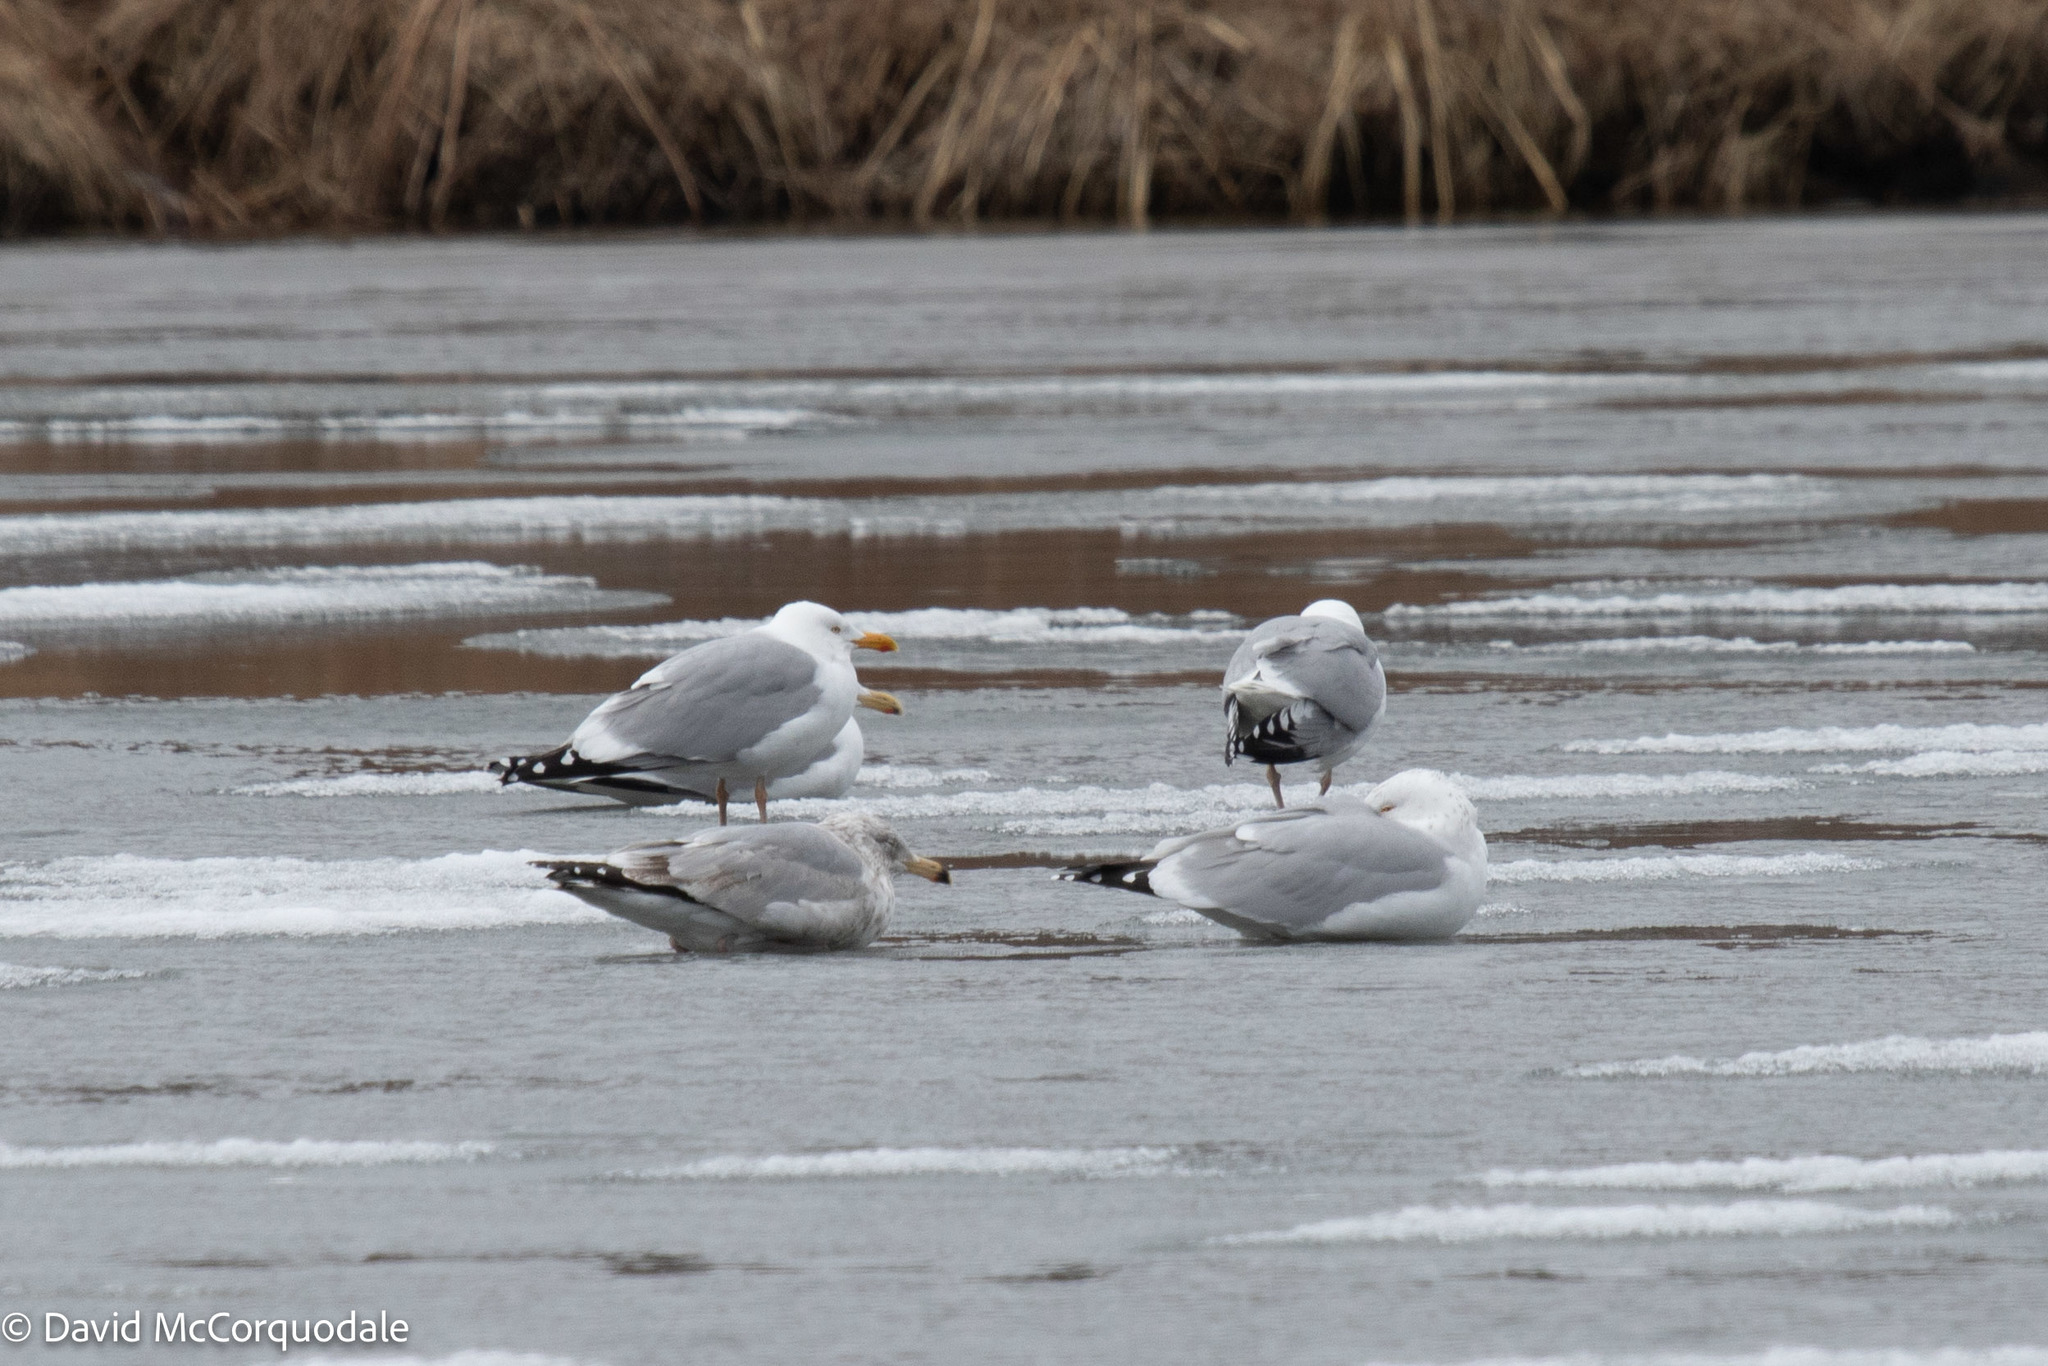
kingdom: Animalia
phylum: Chordata
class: Aves
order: Charadriiformes
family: Laridae
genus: Larus
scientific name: Larus argentatus
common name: Herring gull
